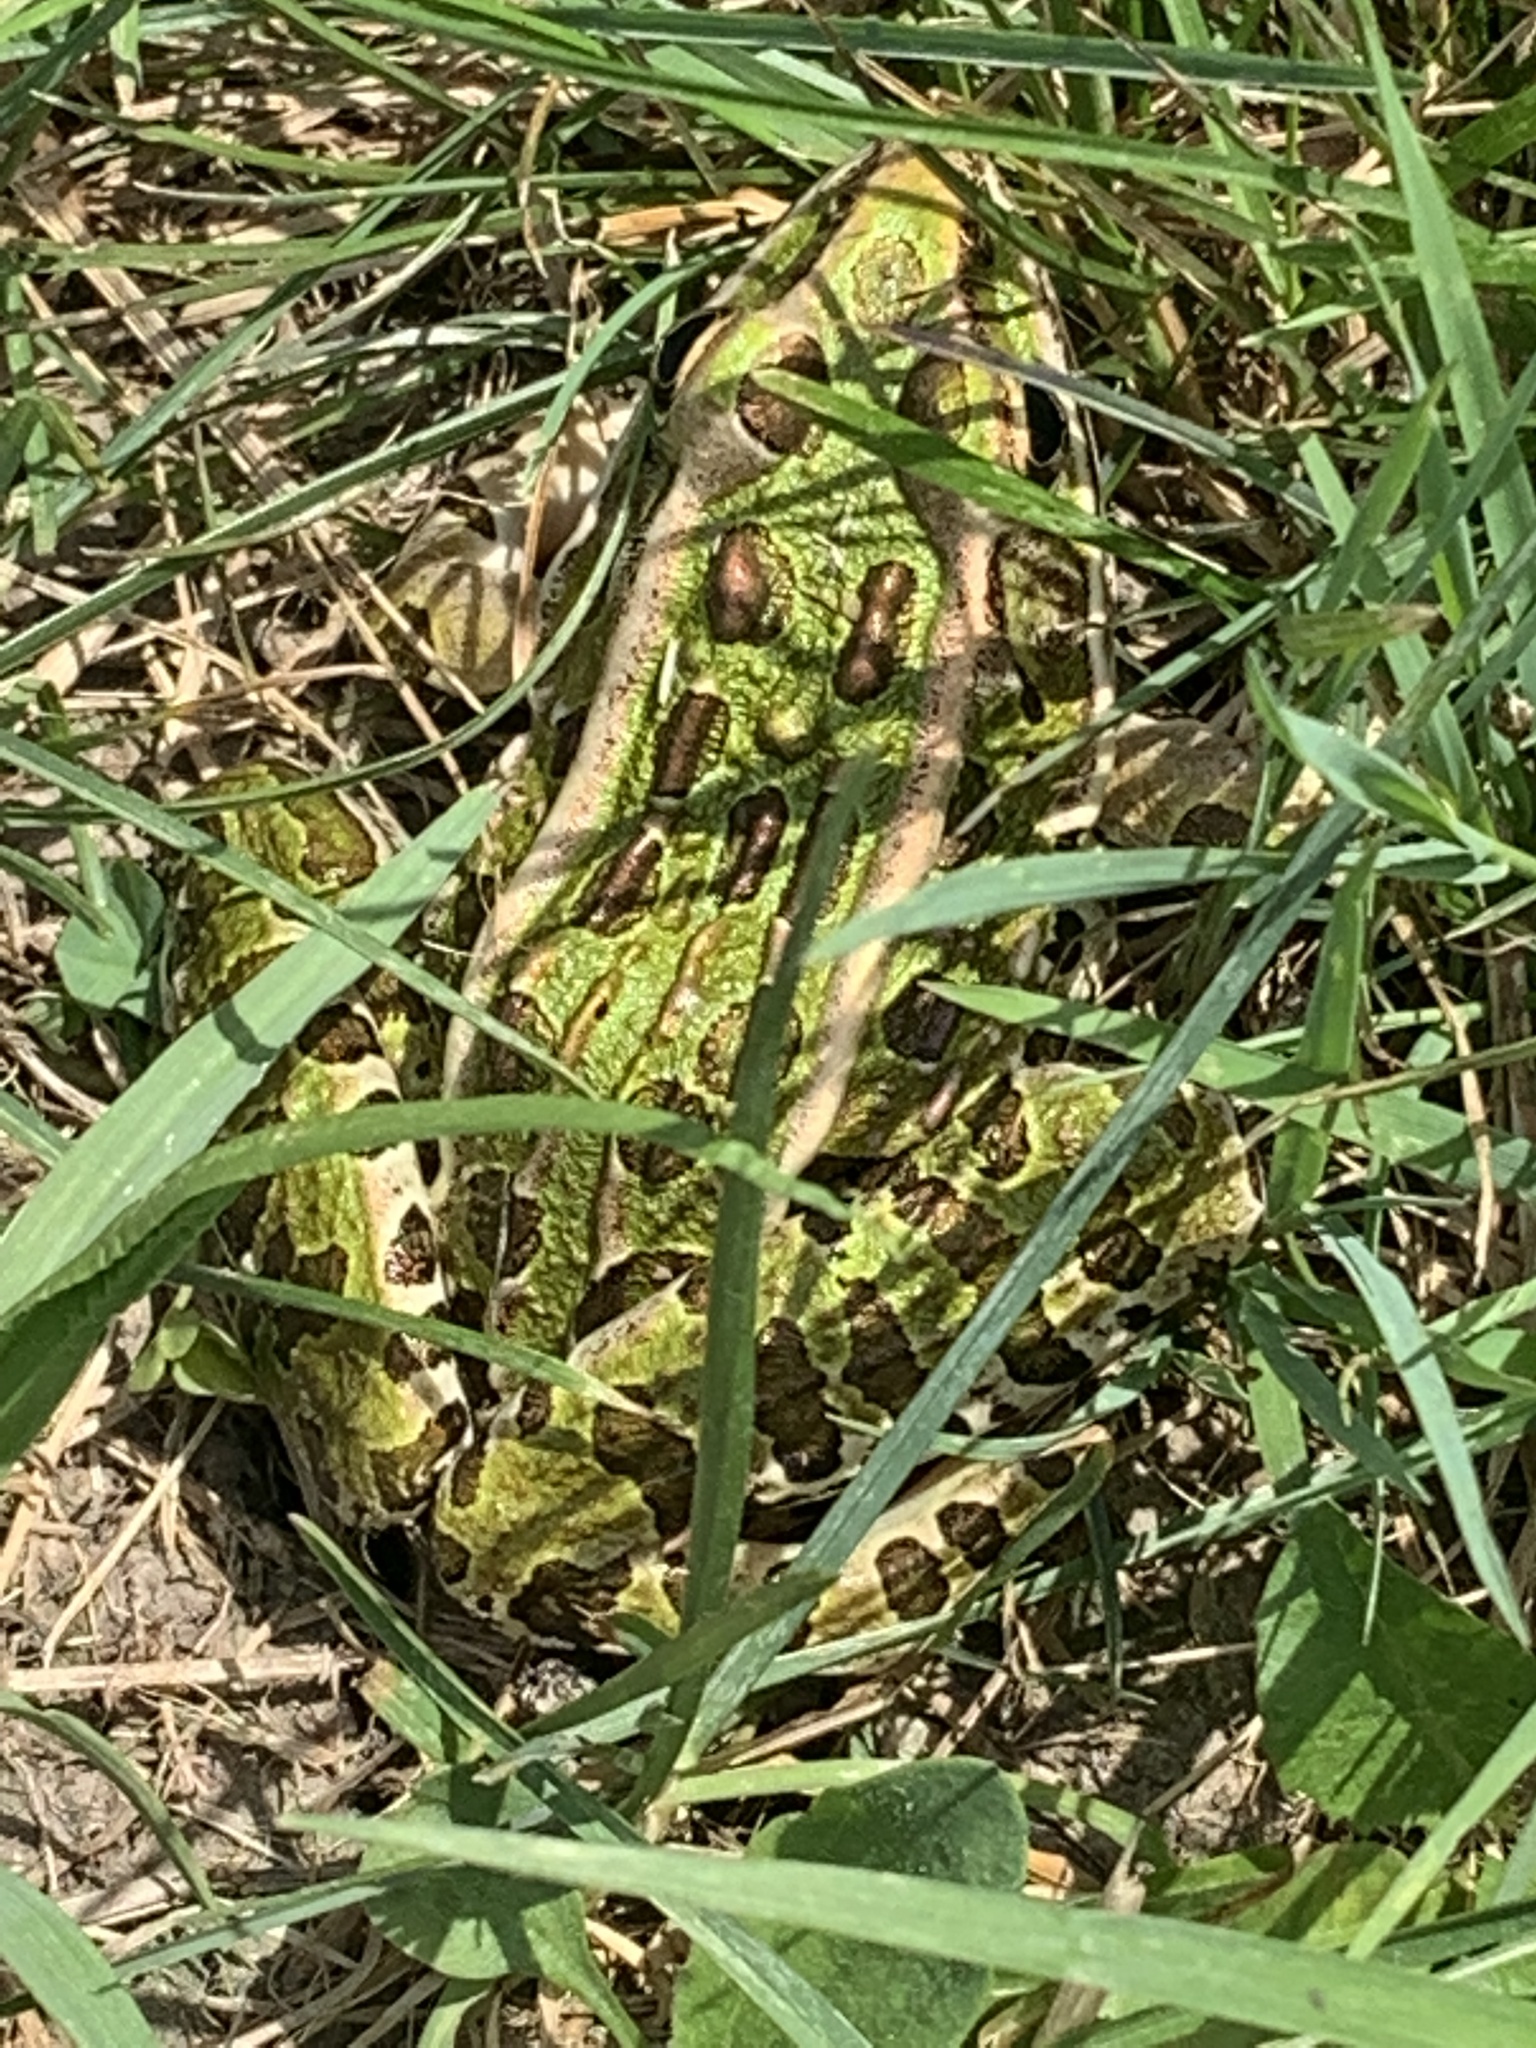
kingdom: Animalia
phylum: Chordata
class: Amphibia
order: Anura
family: Ranidae
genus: Lithobates
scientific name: Lithobates pipiens
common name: Northern leopard frog
